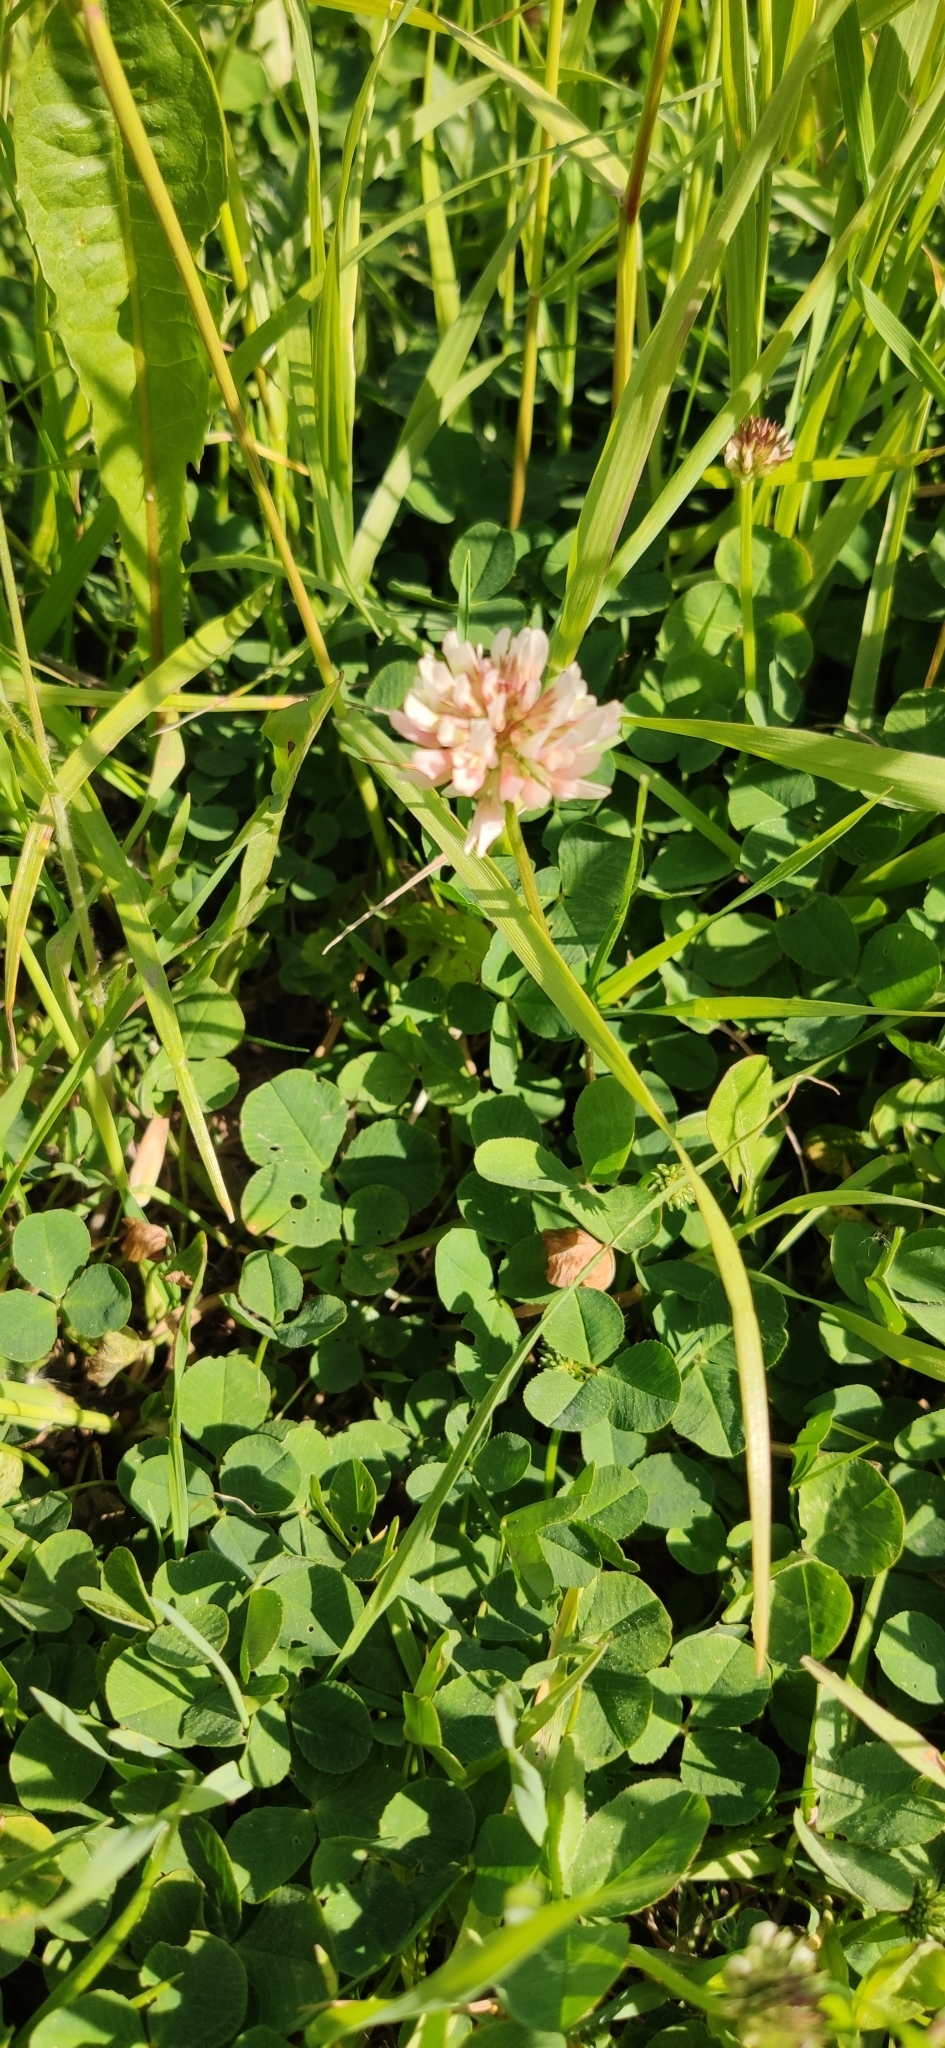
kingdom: Plantae
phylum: Tracheophyta
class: Magnoliopsida
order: Fabales
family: Fabaceae
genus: Trifolium
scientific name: Trifolium repens
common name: White clover
